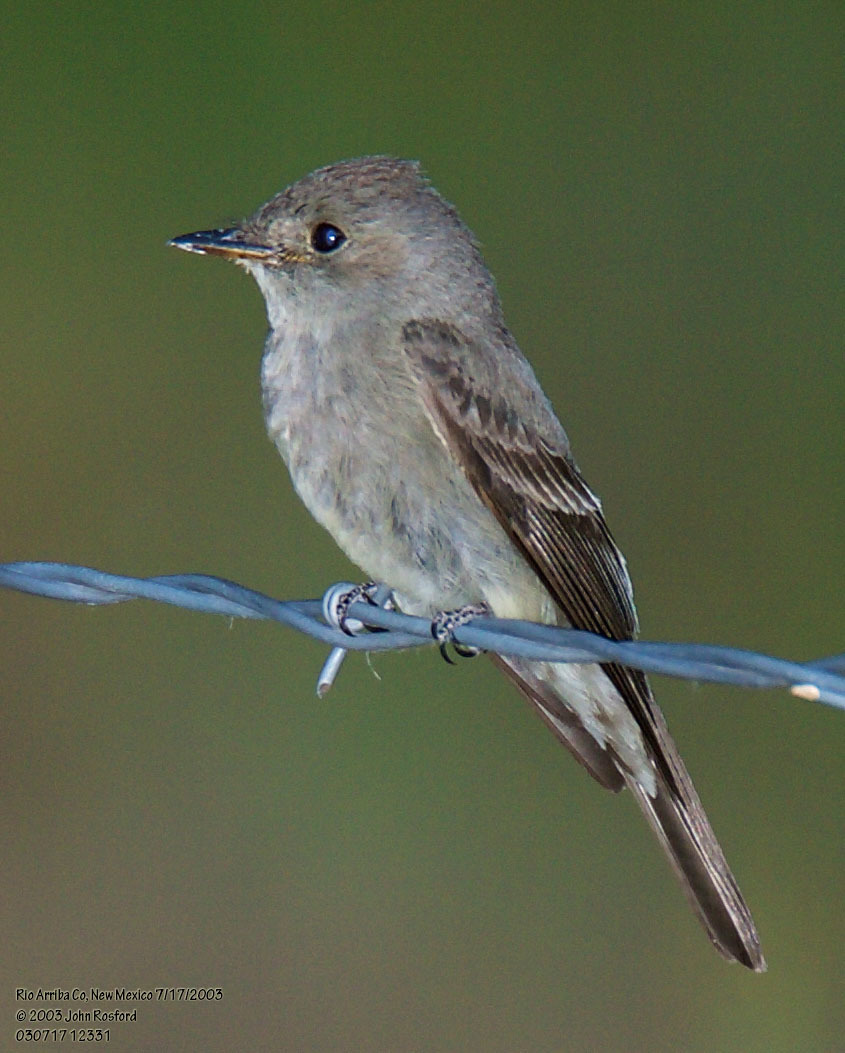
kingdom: Animalia
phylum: Chordata
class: Aves
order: Passeriformes
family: Tyrannidae
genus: Contopus
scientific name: Contopus sordidulus
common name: Western wood-pewee
